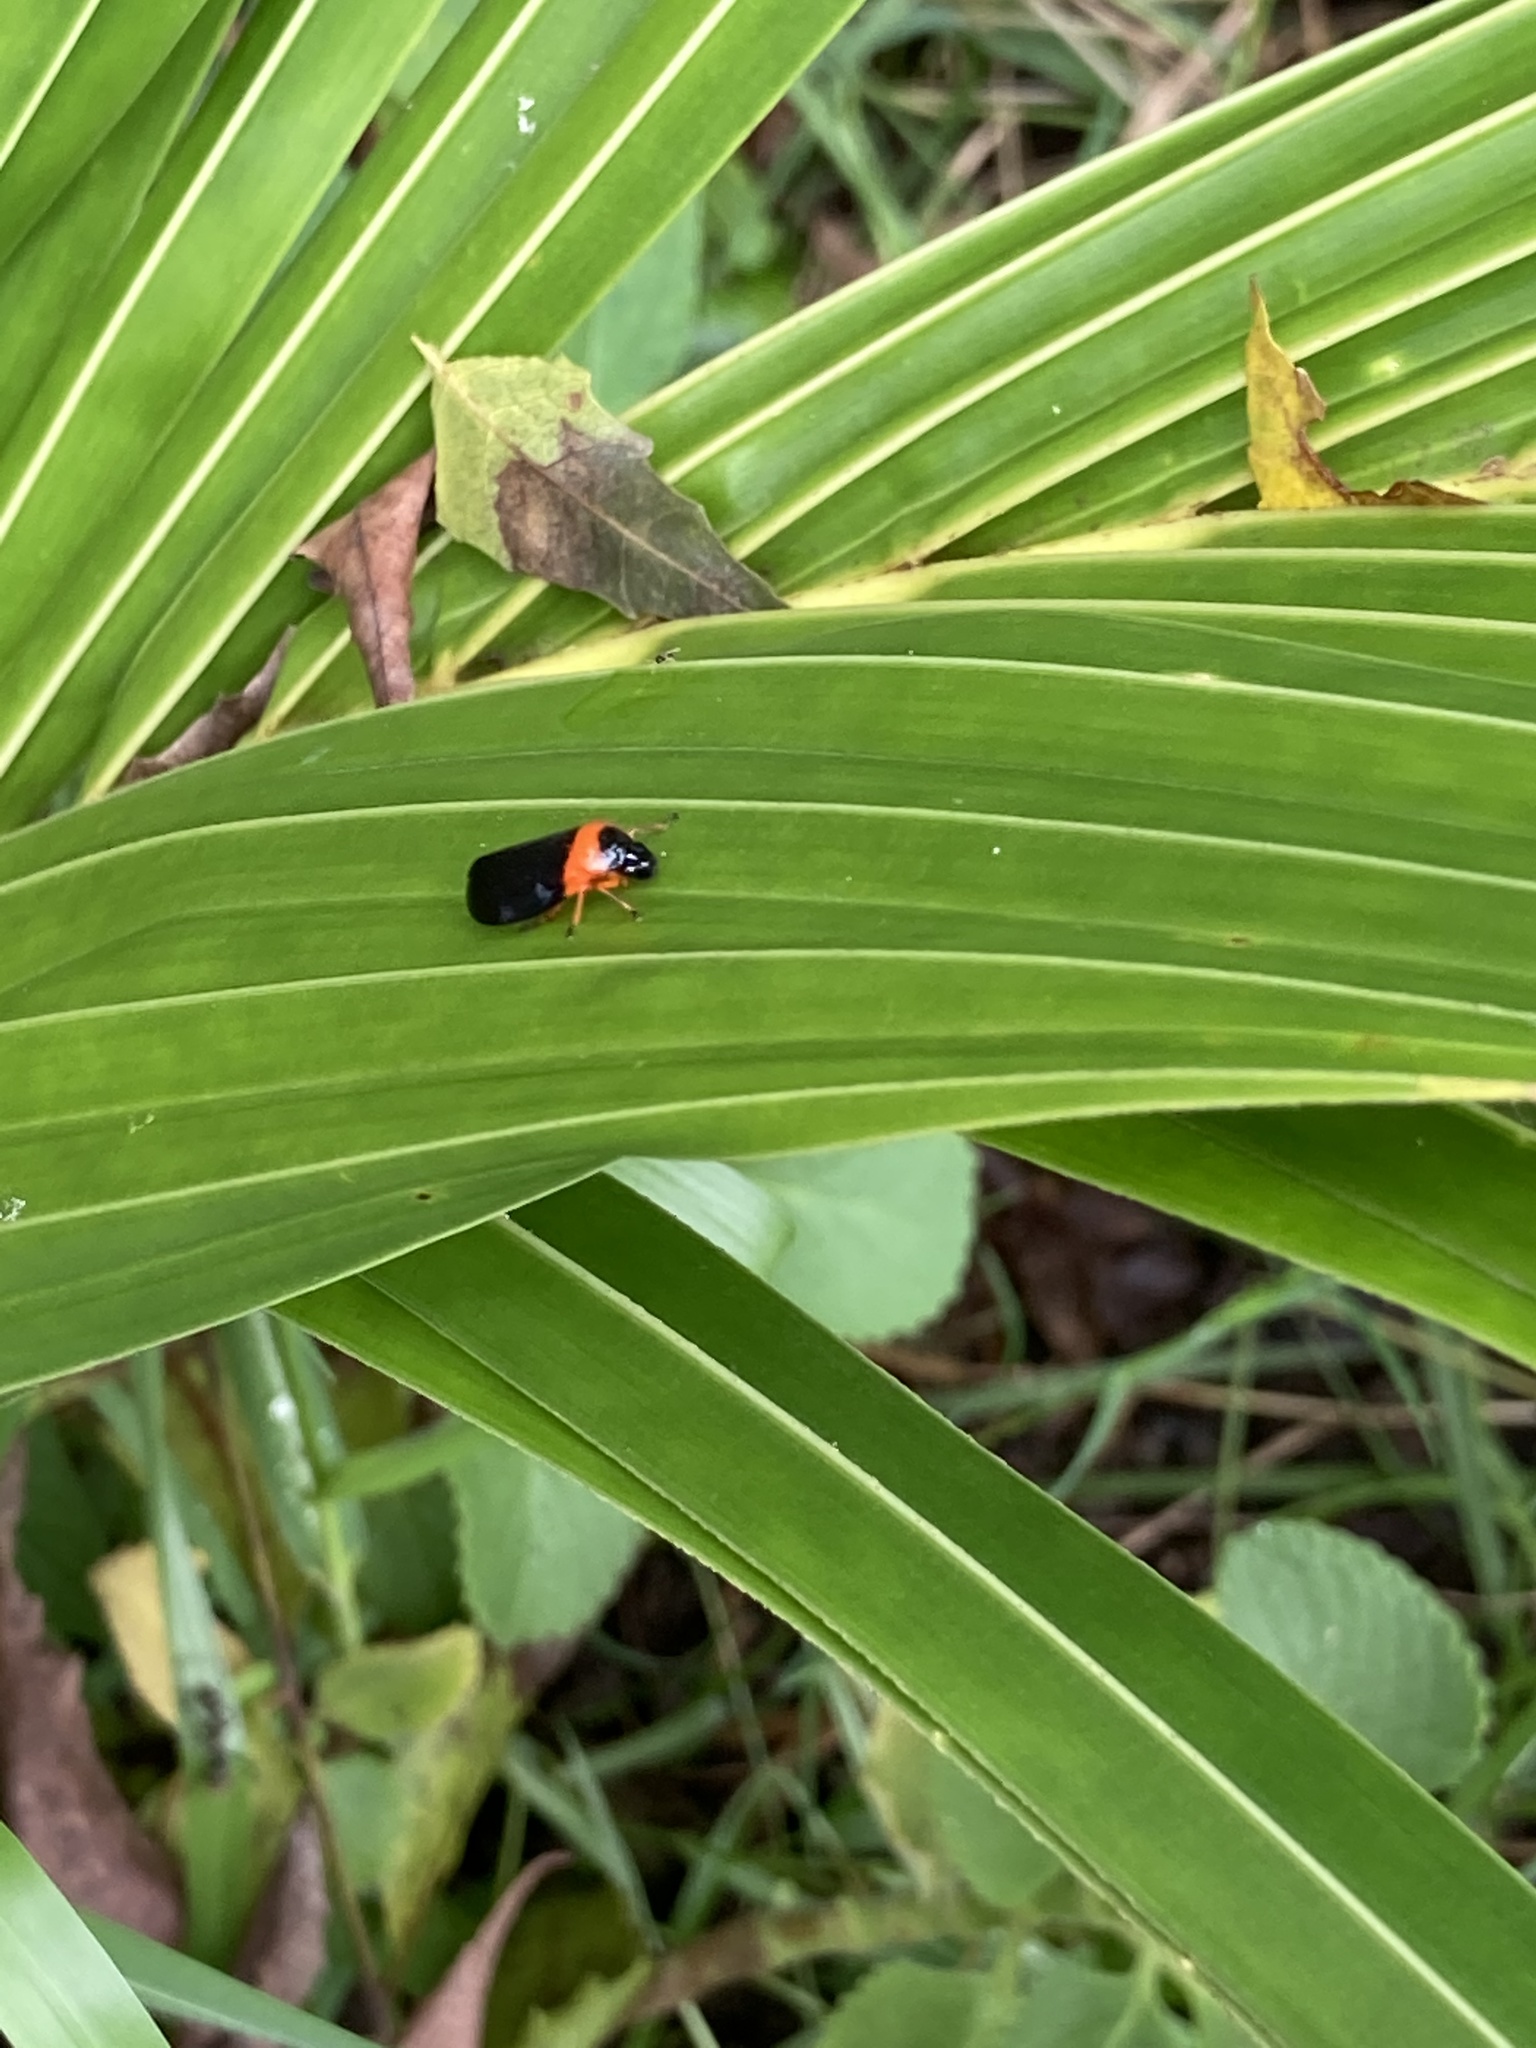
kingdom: Animalia
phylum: Arthropoda
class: Insecta
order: Hemiptera
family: Cercopidae
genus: Phymatostetha
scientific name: Phymatostetha deschampsi
